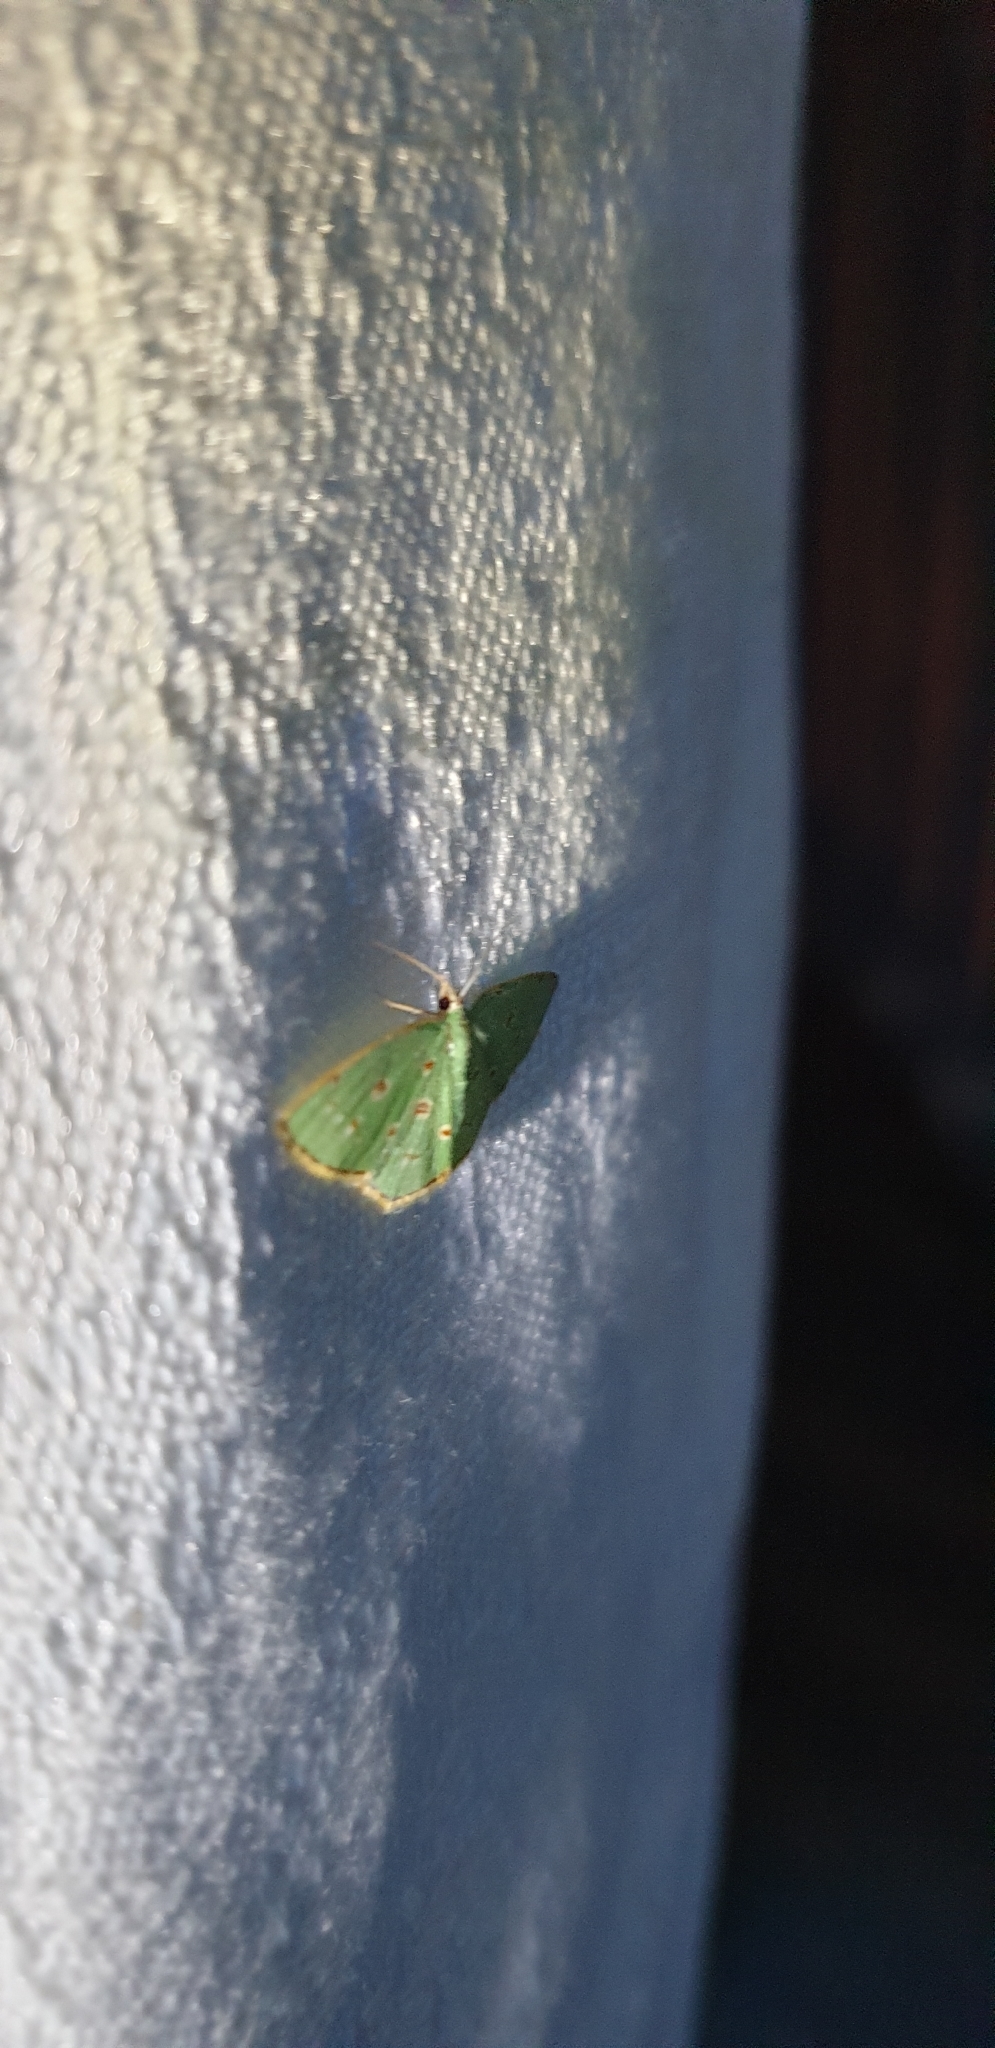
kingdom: Animalia
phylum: Arthropoda
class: Insecta
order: Lepidoptera
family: Geometridae
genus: Comostola
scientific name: Comostola laesaria
